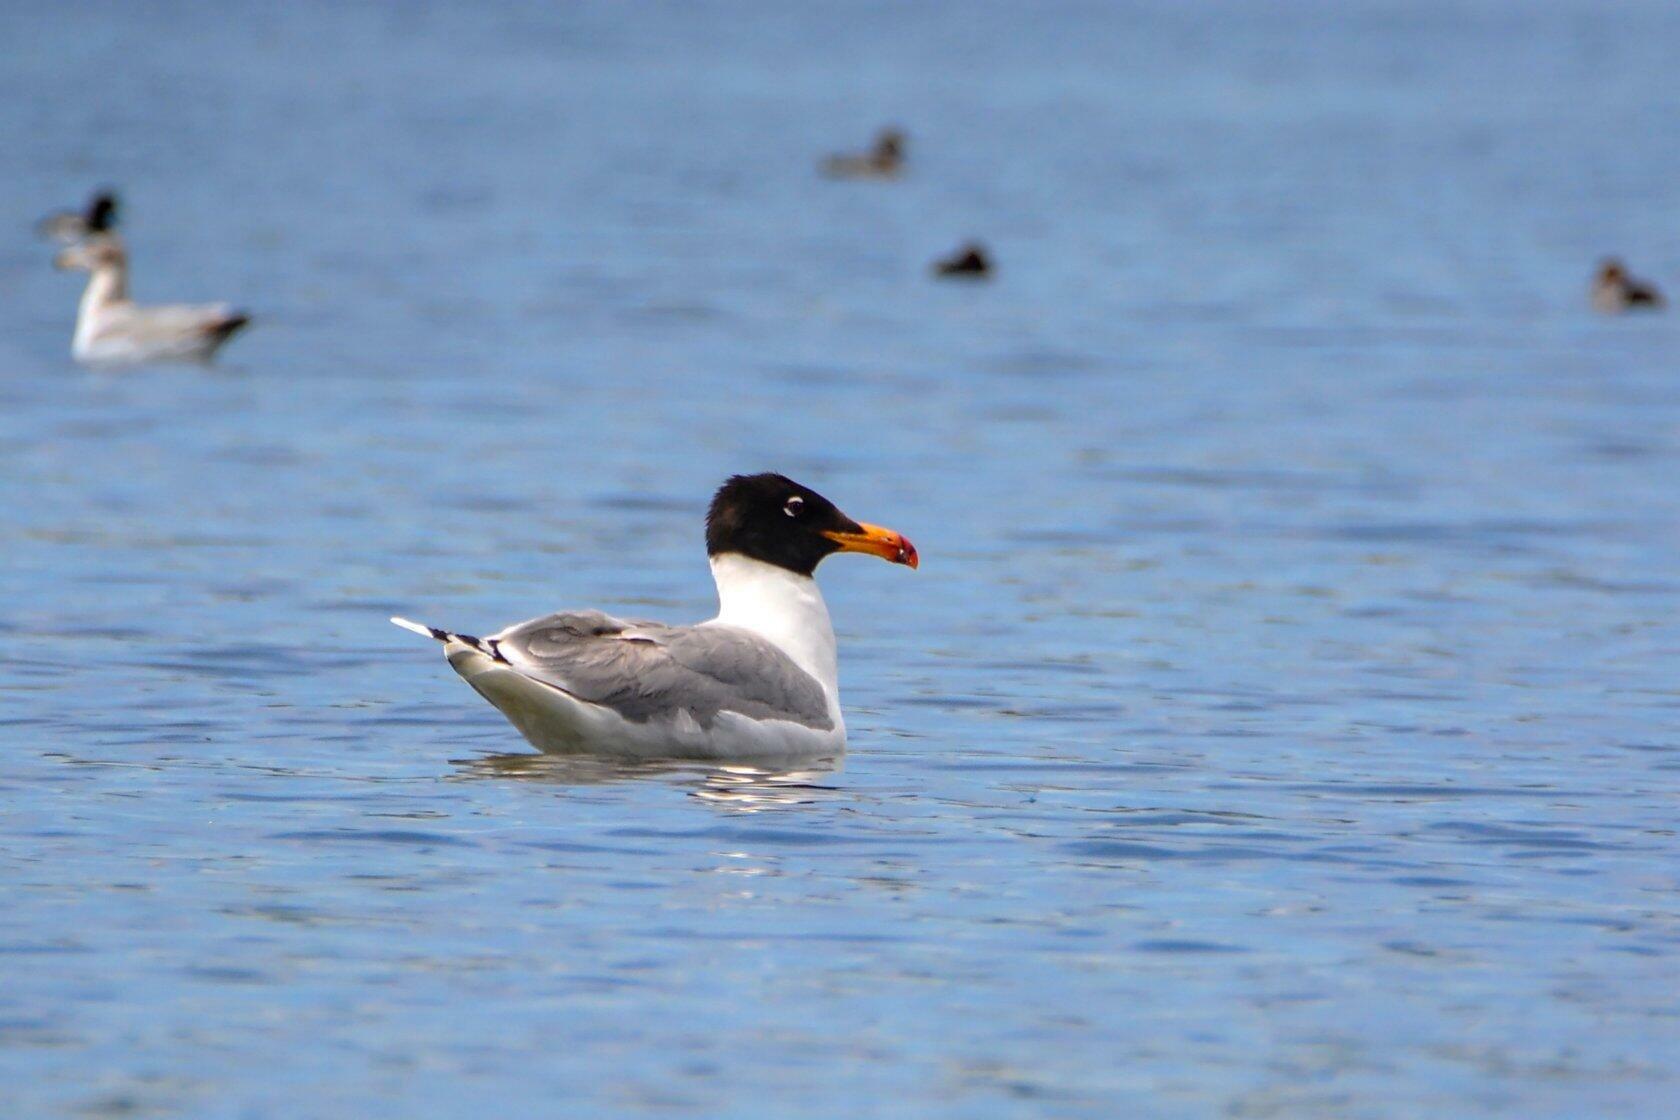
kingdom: Animalia
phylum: Chordata
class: Aves
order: Charadriiformes
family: Laridae
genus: Ichthyaetus
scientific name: Ichthyaetus ichthyaetus
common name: Pallas's gull
